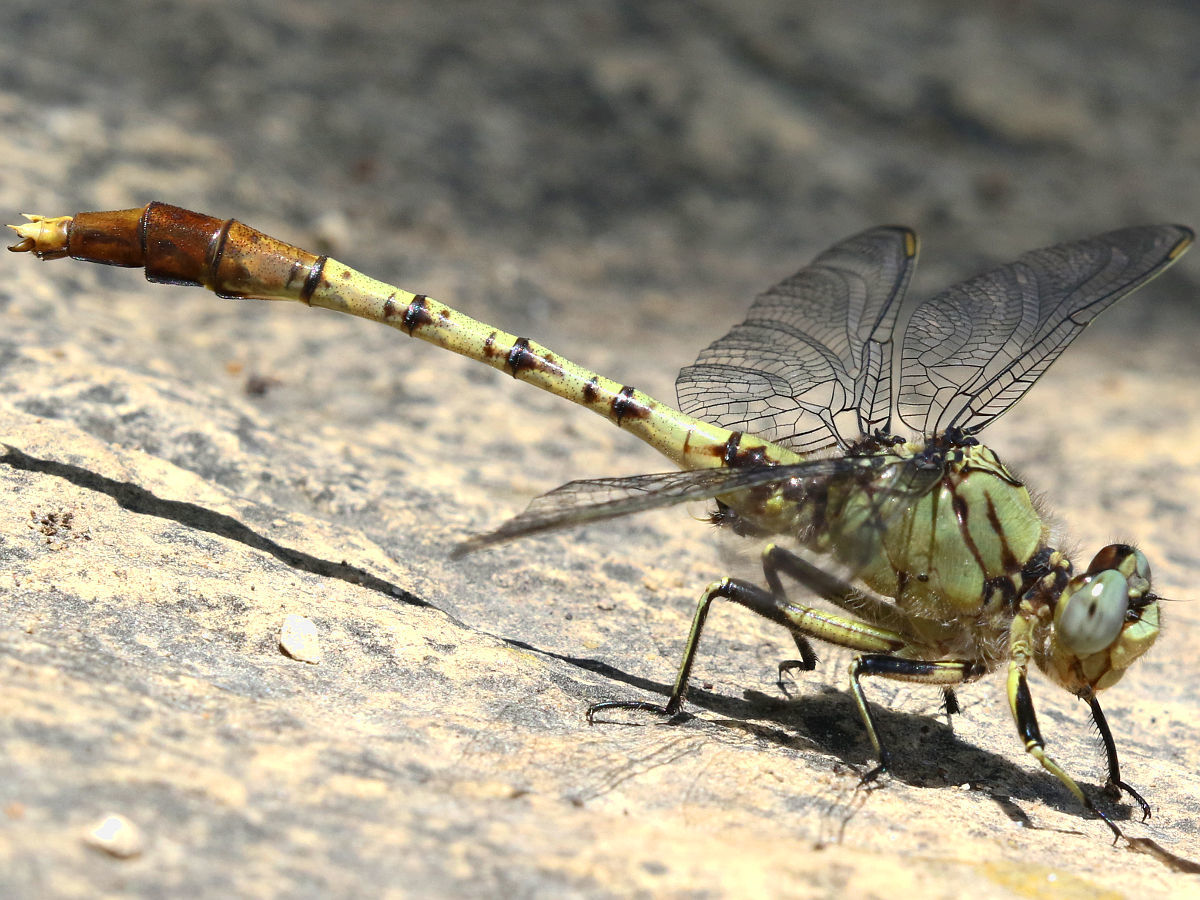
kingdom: Animalia
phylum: Arthropoda
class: Insecta
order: Odonata
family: Gomphidae
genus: Arigomphus
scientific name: Arigomphus submedianus
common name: Jade clubtail
